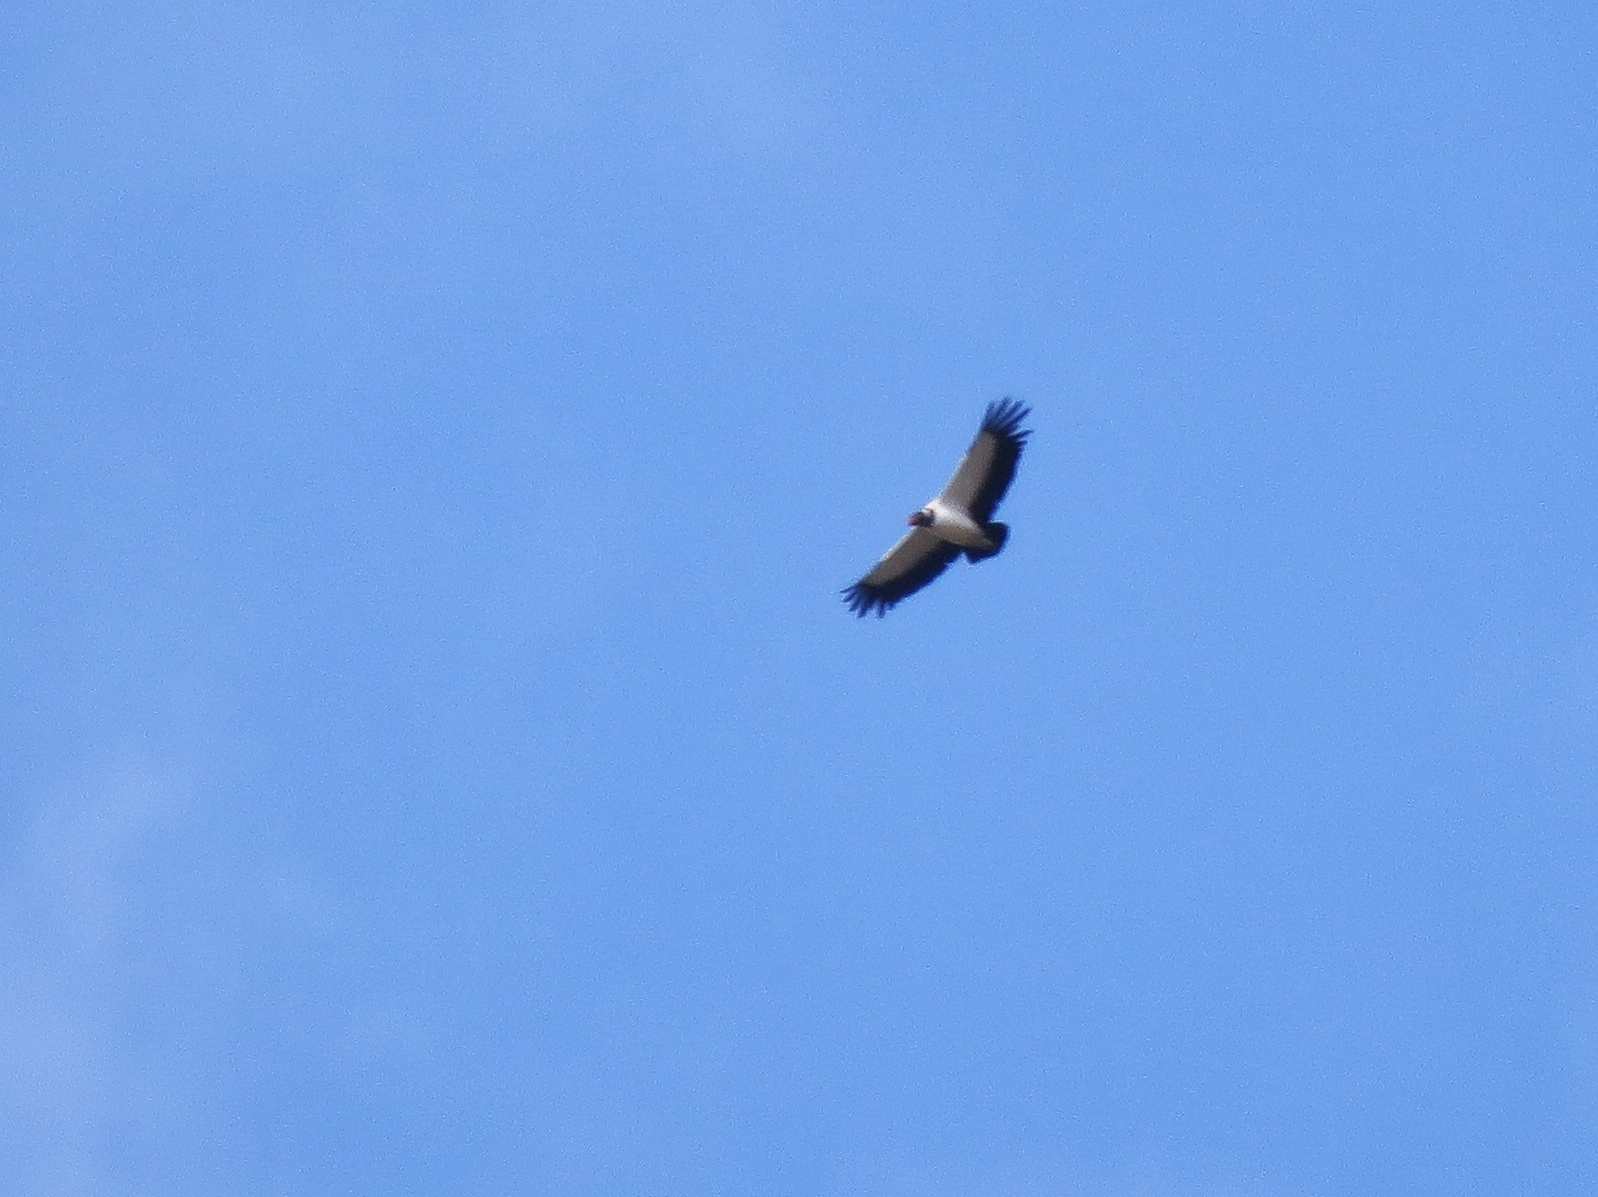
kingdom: Animalia
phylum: Chordata
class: Aves
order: Accipitriformes
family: Cathartidae
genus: Sarcoramphus
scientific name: Sarcoramphus papa
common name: King vulture
